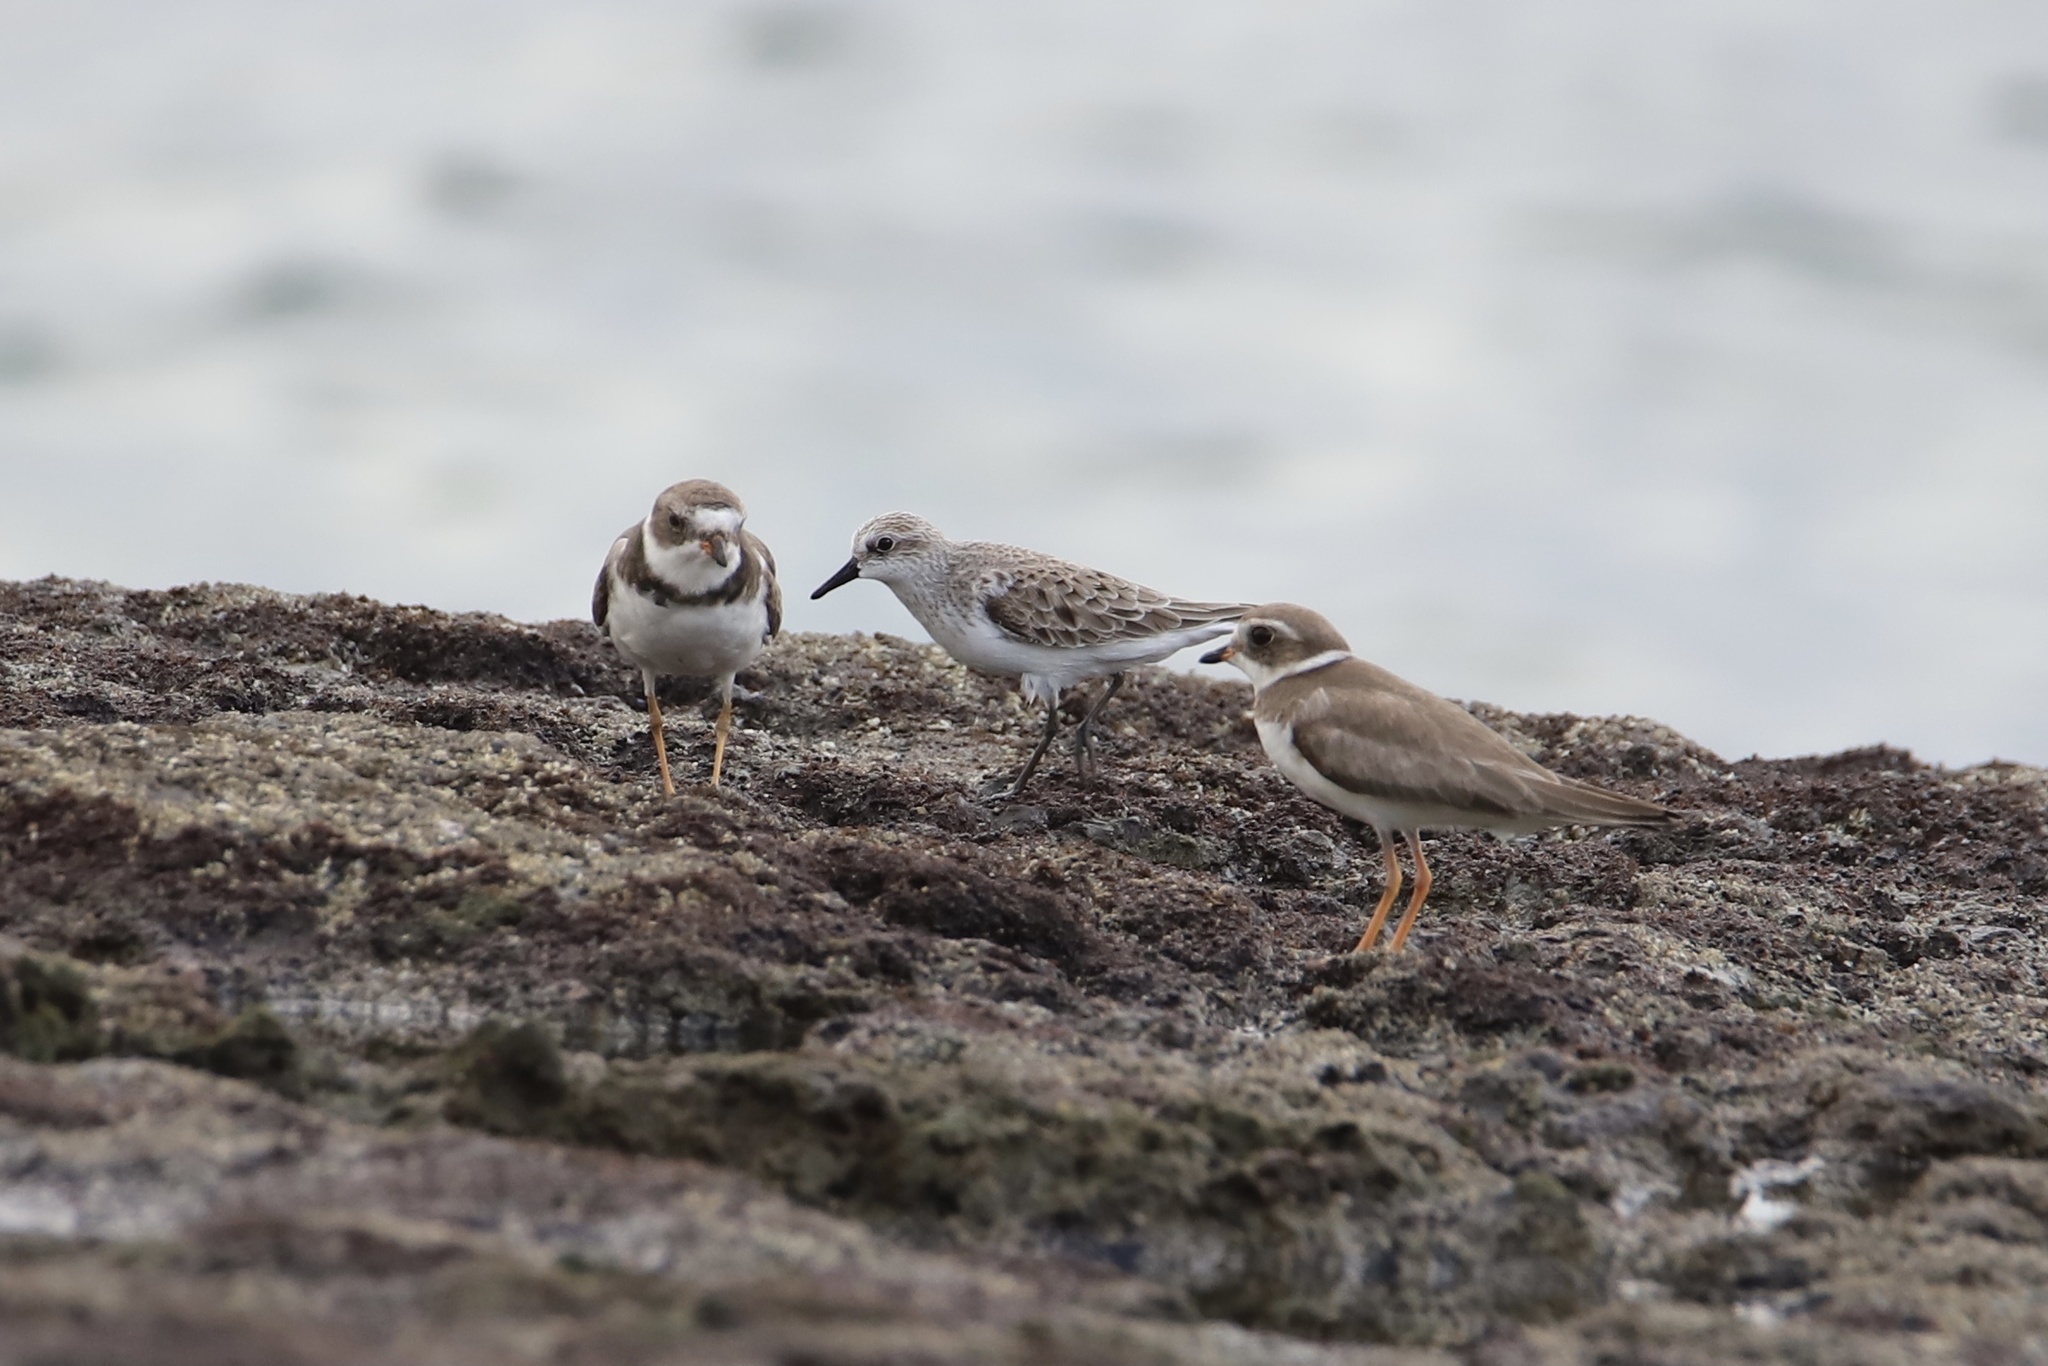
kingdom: Animalia
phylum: Chordata
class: Aves
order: Charadriiformes
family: Charadriidae
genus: Charadrius
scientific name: Charadrius semipalmatus
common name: Semipalmated plover
